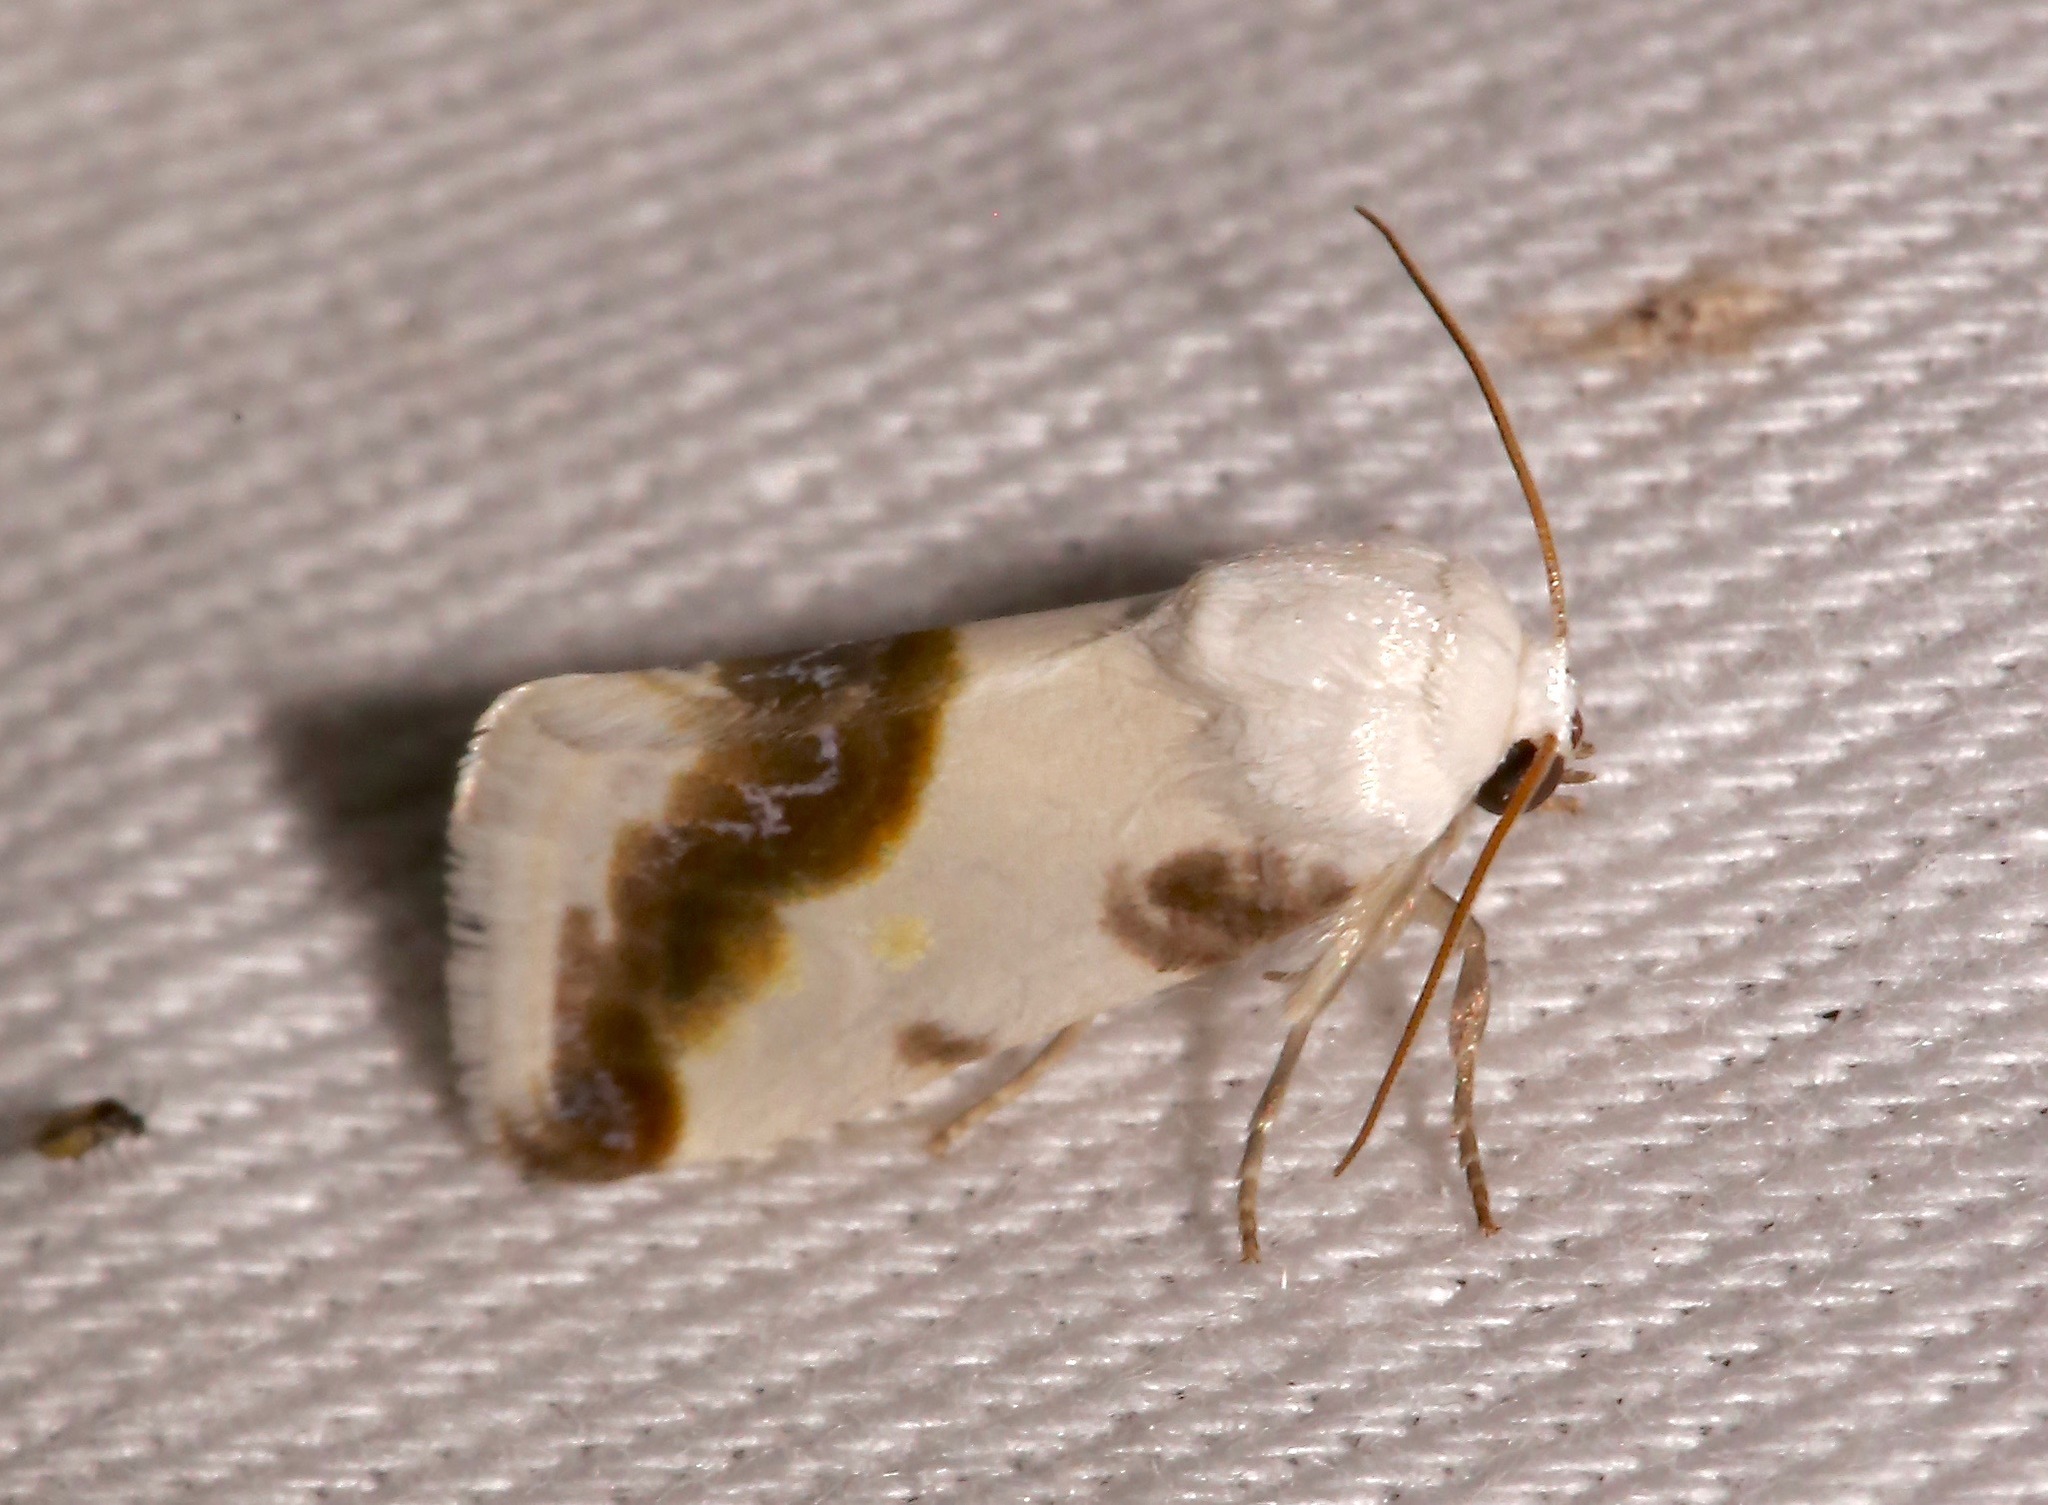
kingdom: Animalia
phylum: Arthropoda
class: Insecta
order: Lepidoptera
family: Noctuidae
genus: Acontia
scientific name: Acontia cretata
